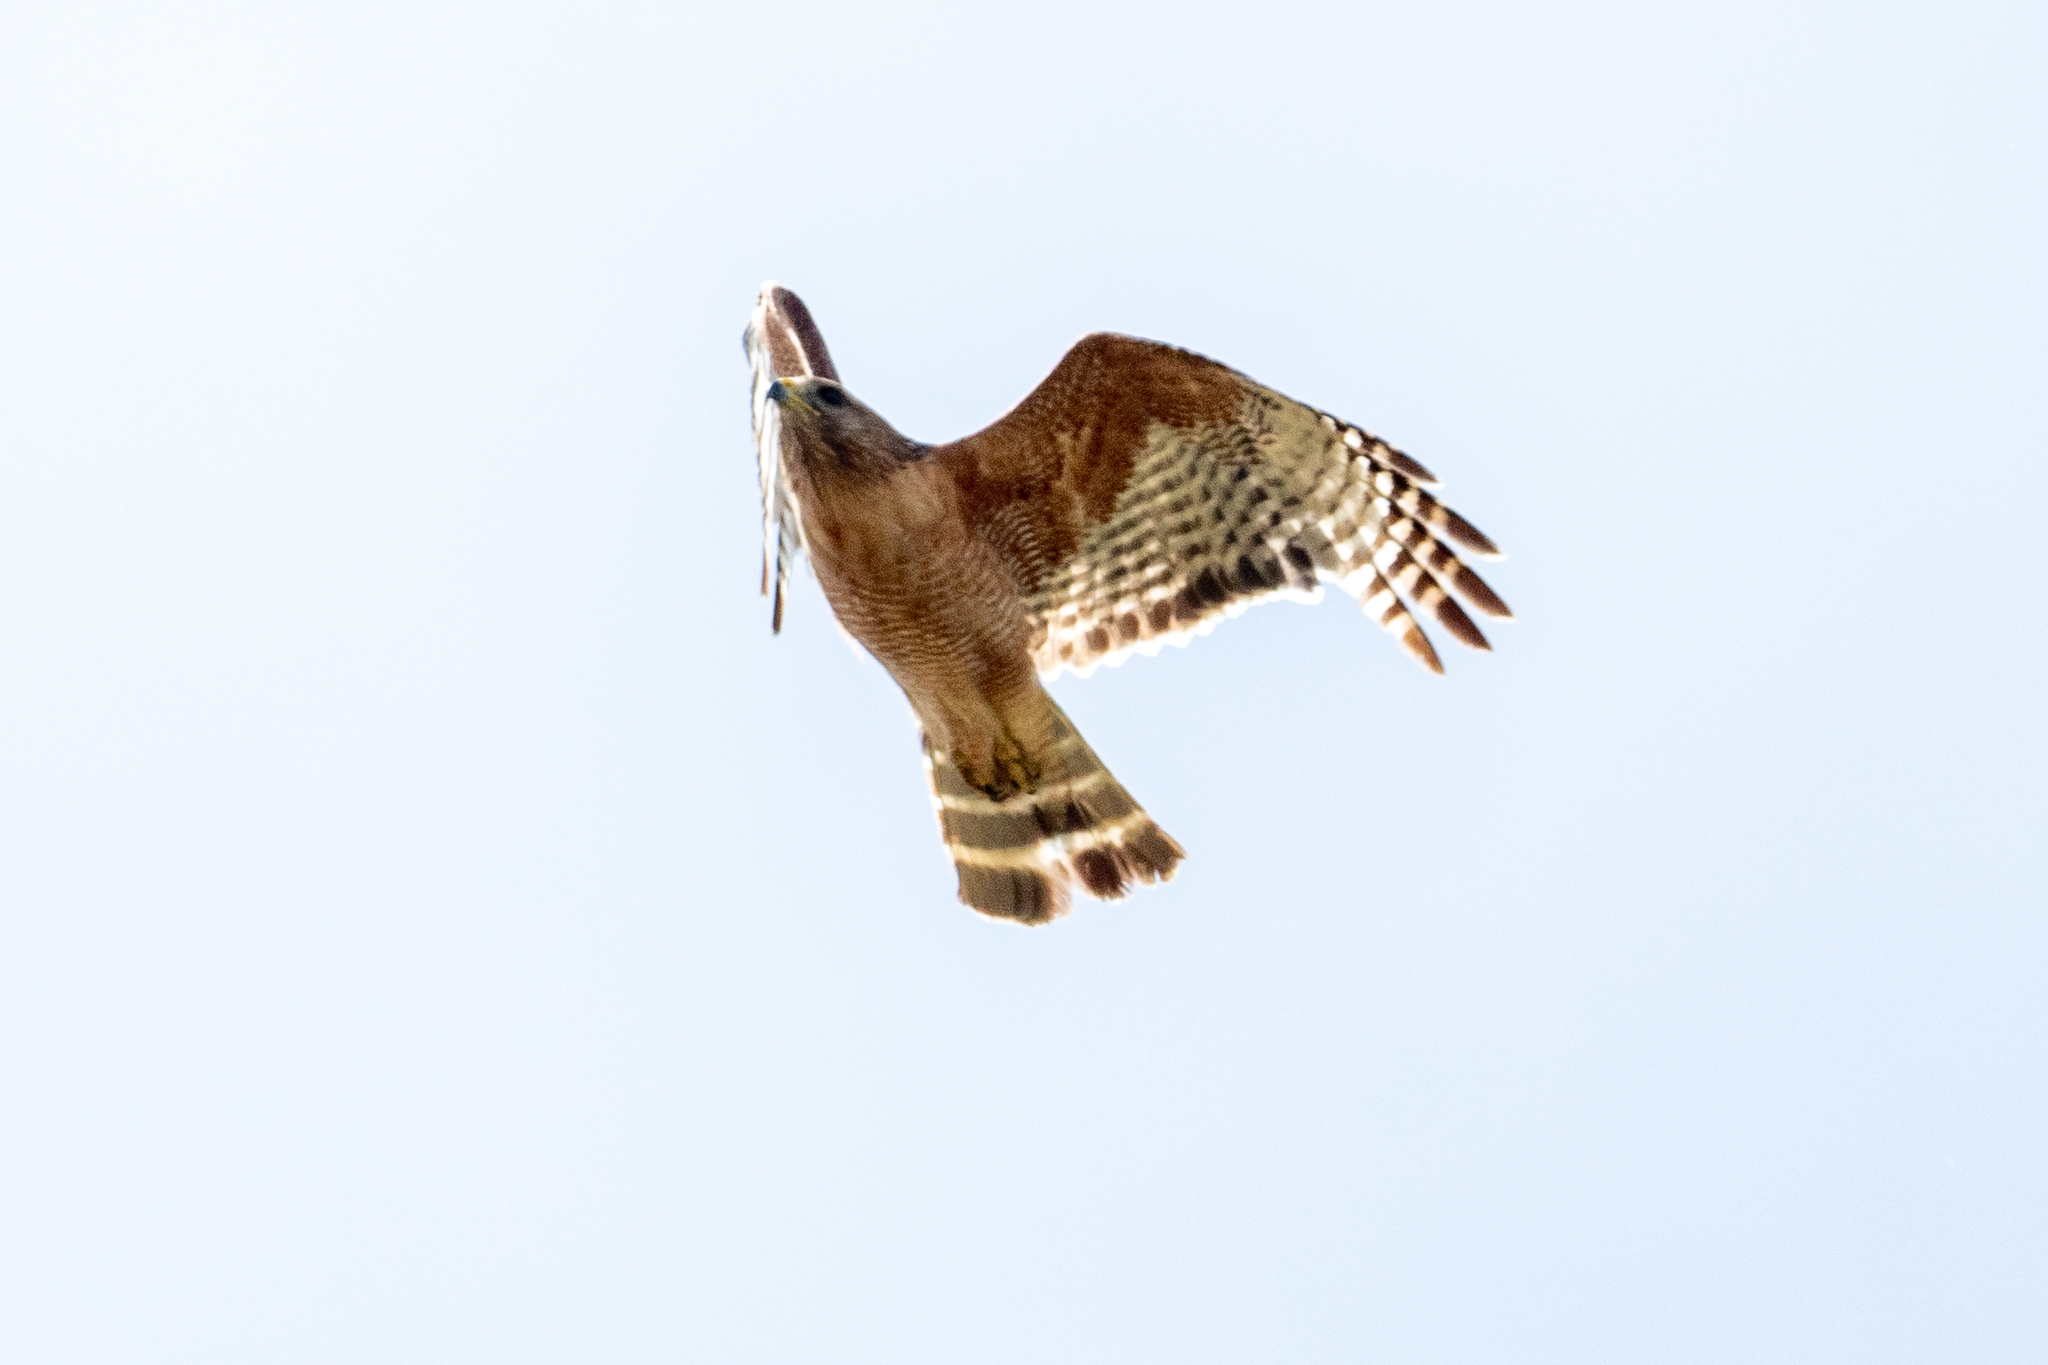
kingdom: Animalia
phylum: Chordata
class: Aves
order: Accipitriformes
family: Accipitridae
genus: Buteo
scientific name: Buteo lineatus
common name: Red-shouldered hawk
